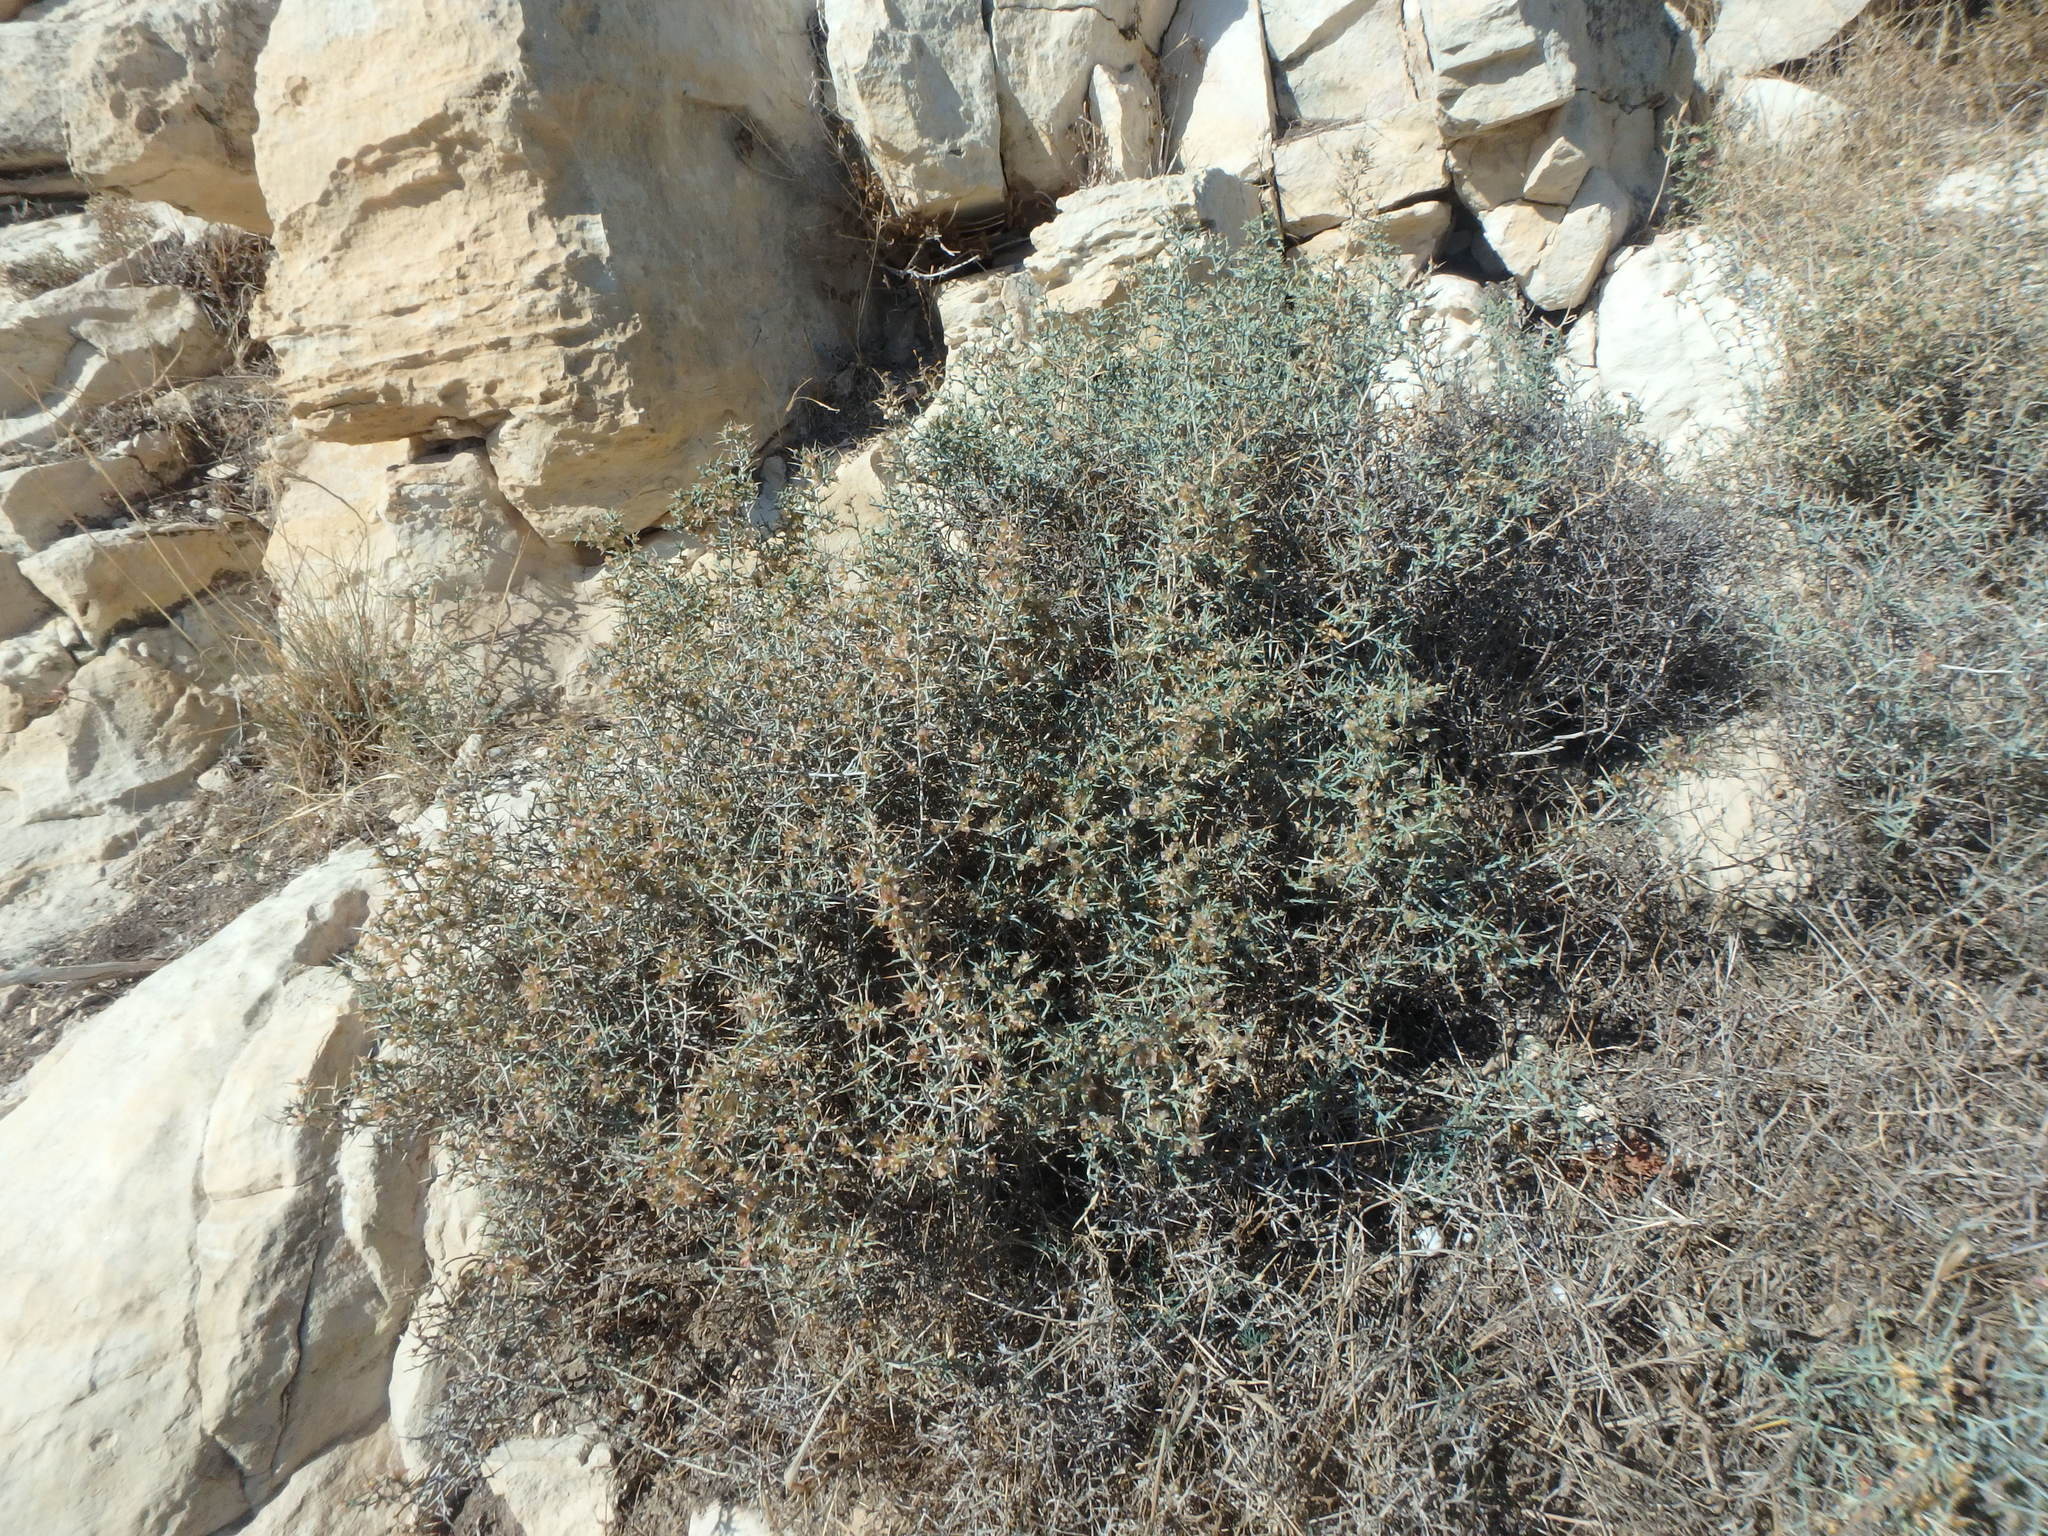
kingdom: Plantae
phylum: Tracheophyta
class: Magnoliopsida
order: Caryophyllales
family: Amaranthaceae
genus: Noaea
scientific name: Noaea mucronata
